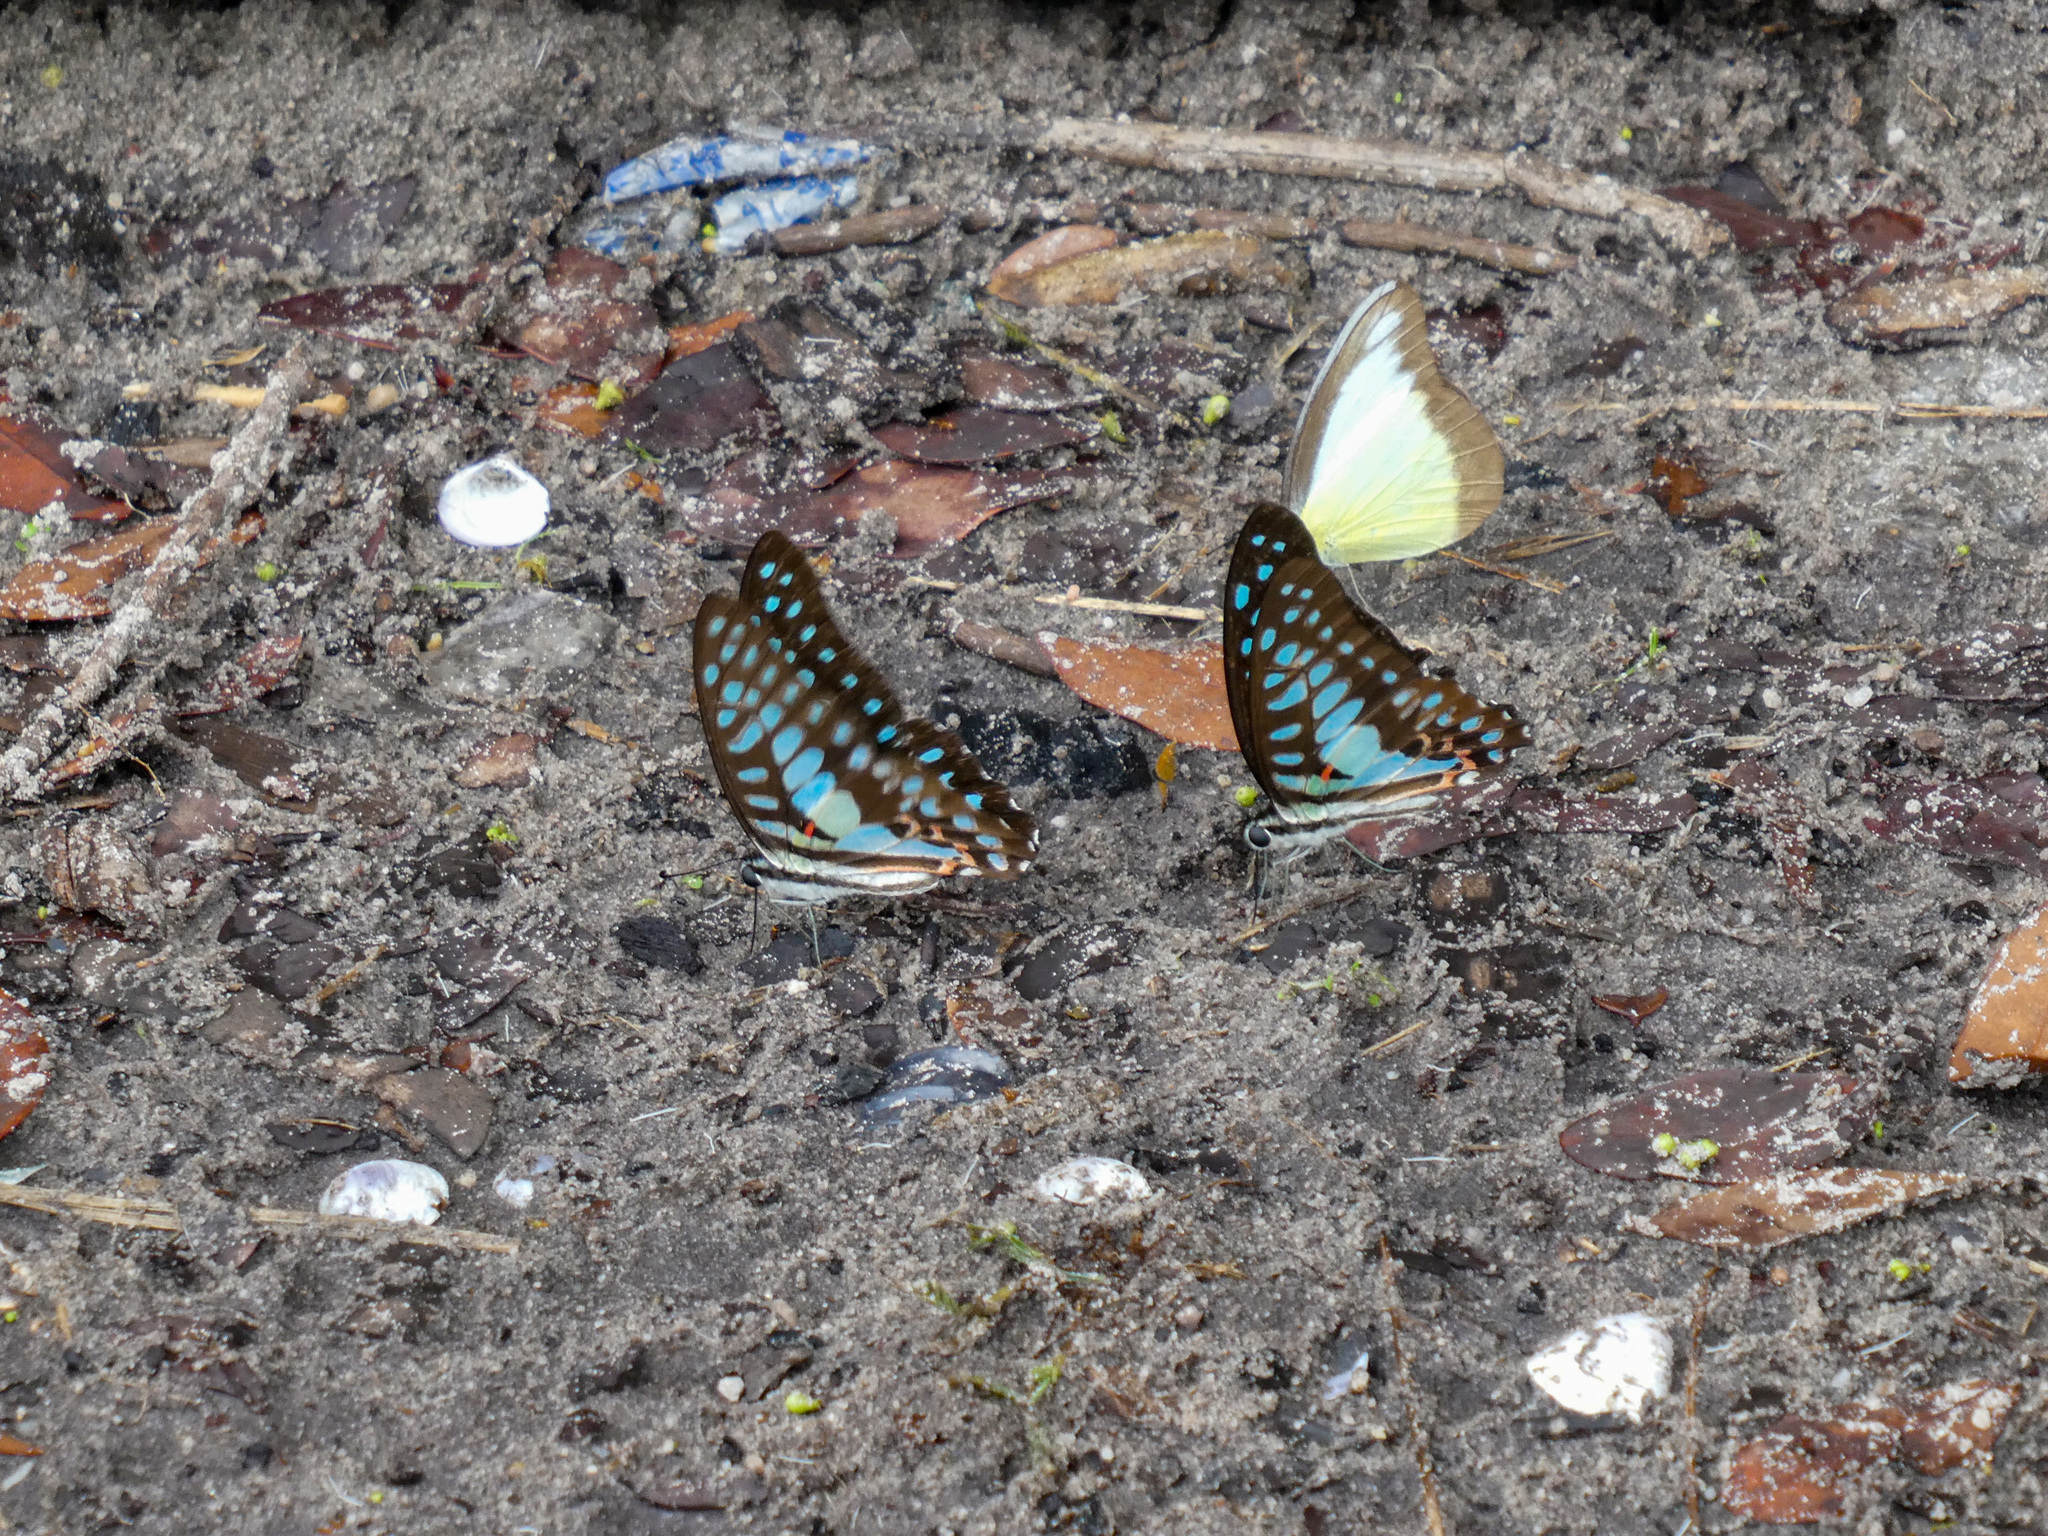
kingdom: Animalia
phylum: Arthropoda
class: Insecta
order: Lepidoptera
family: Pieridae
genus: Appias
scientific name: Appias lyncida
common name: Chocolate albatross
